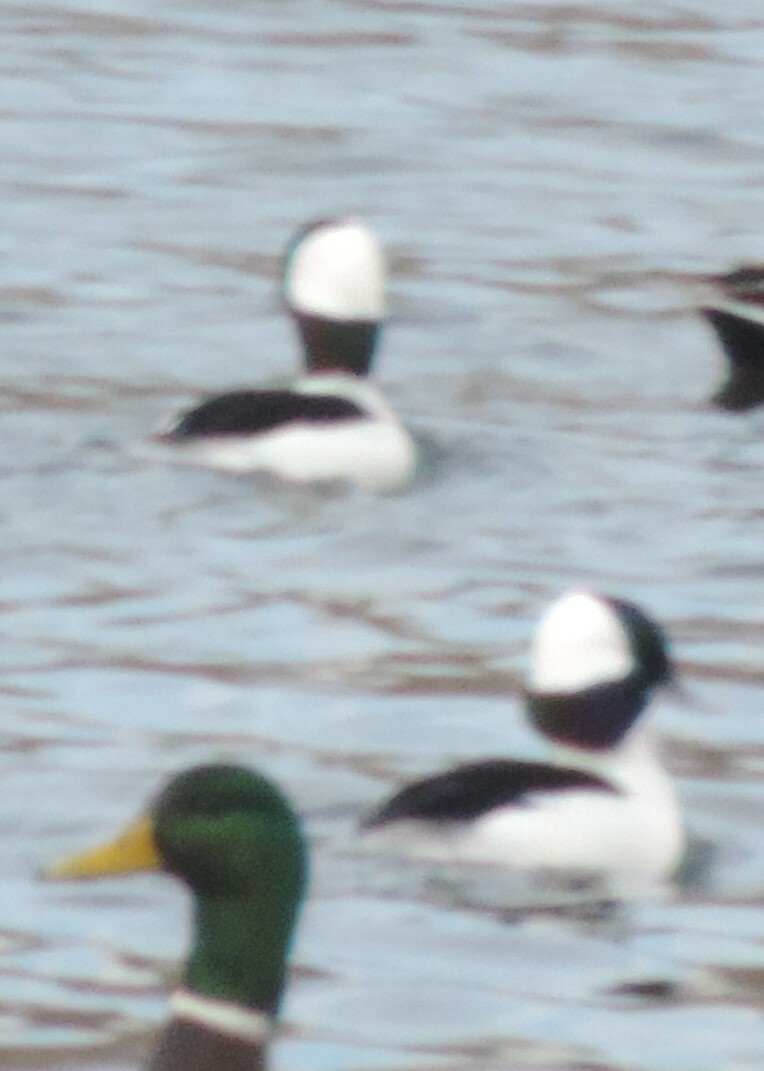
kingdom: Animalia
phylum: Chordata
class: Aves
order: Anseriformes
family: Anatidae
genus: Bucephala
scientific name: Bucephala albeola
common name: Bufflehead
